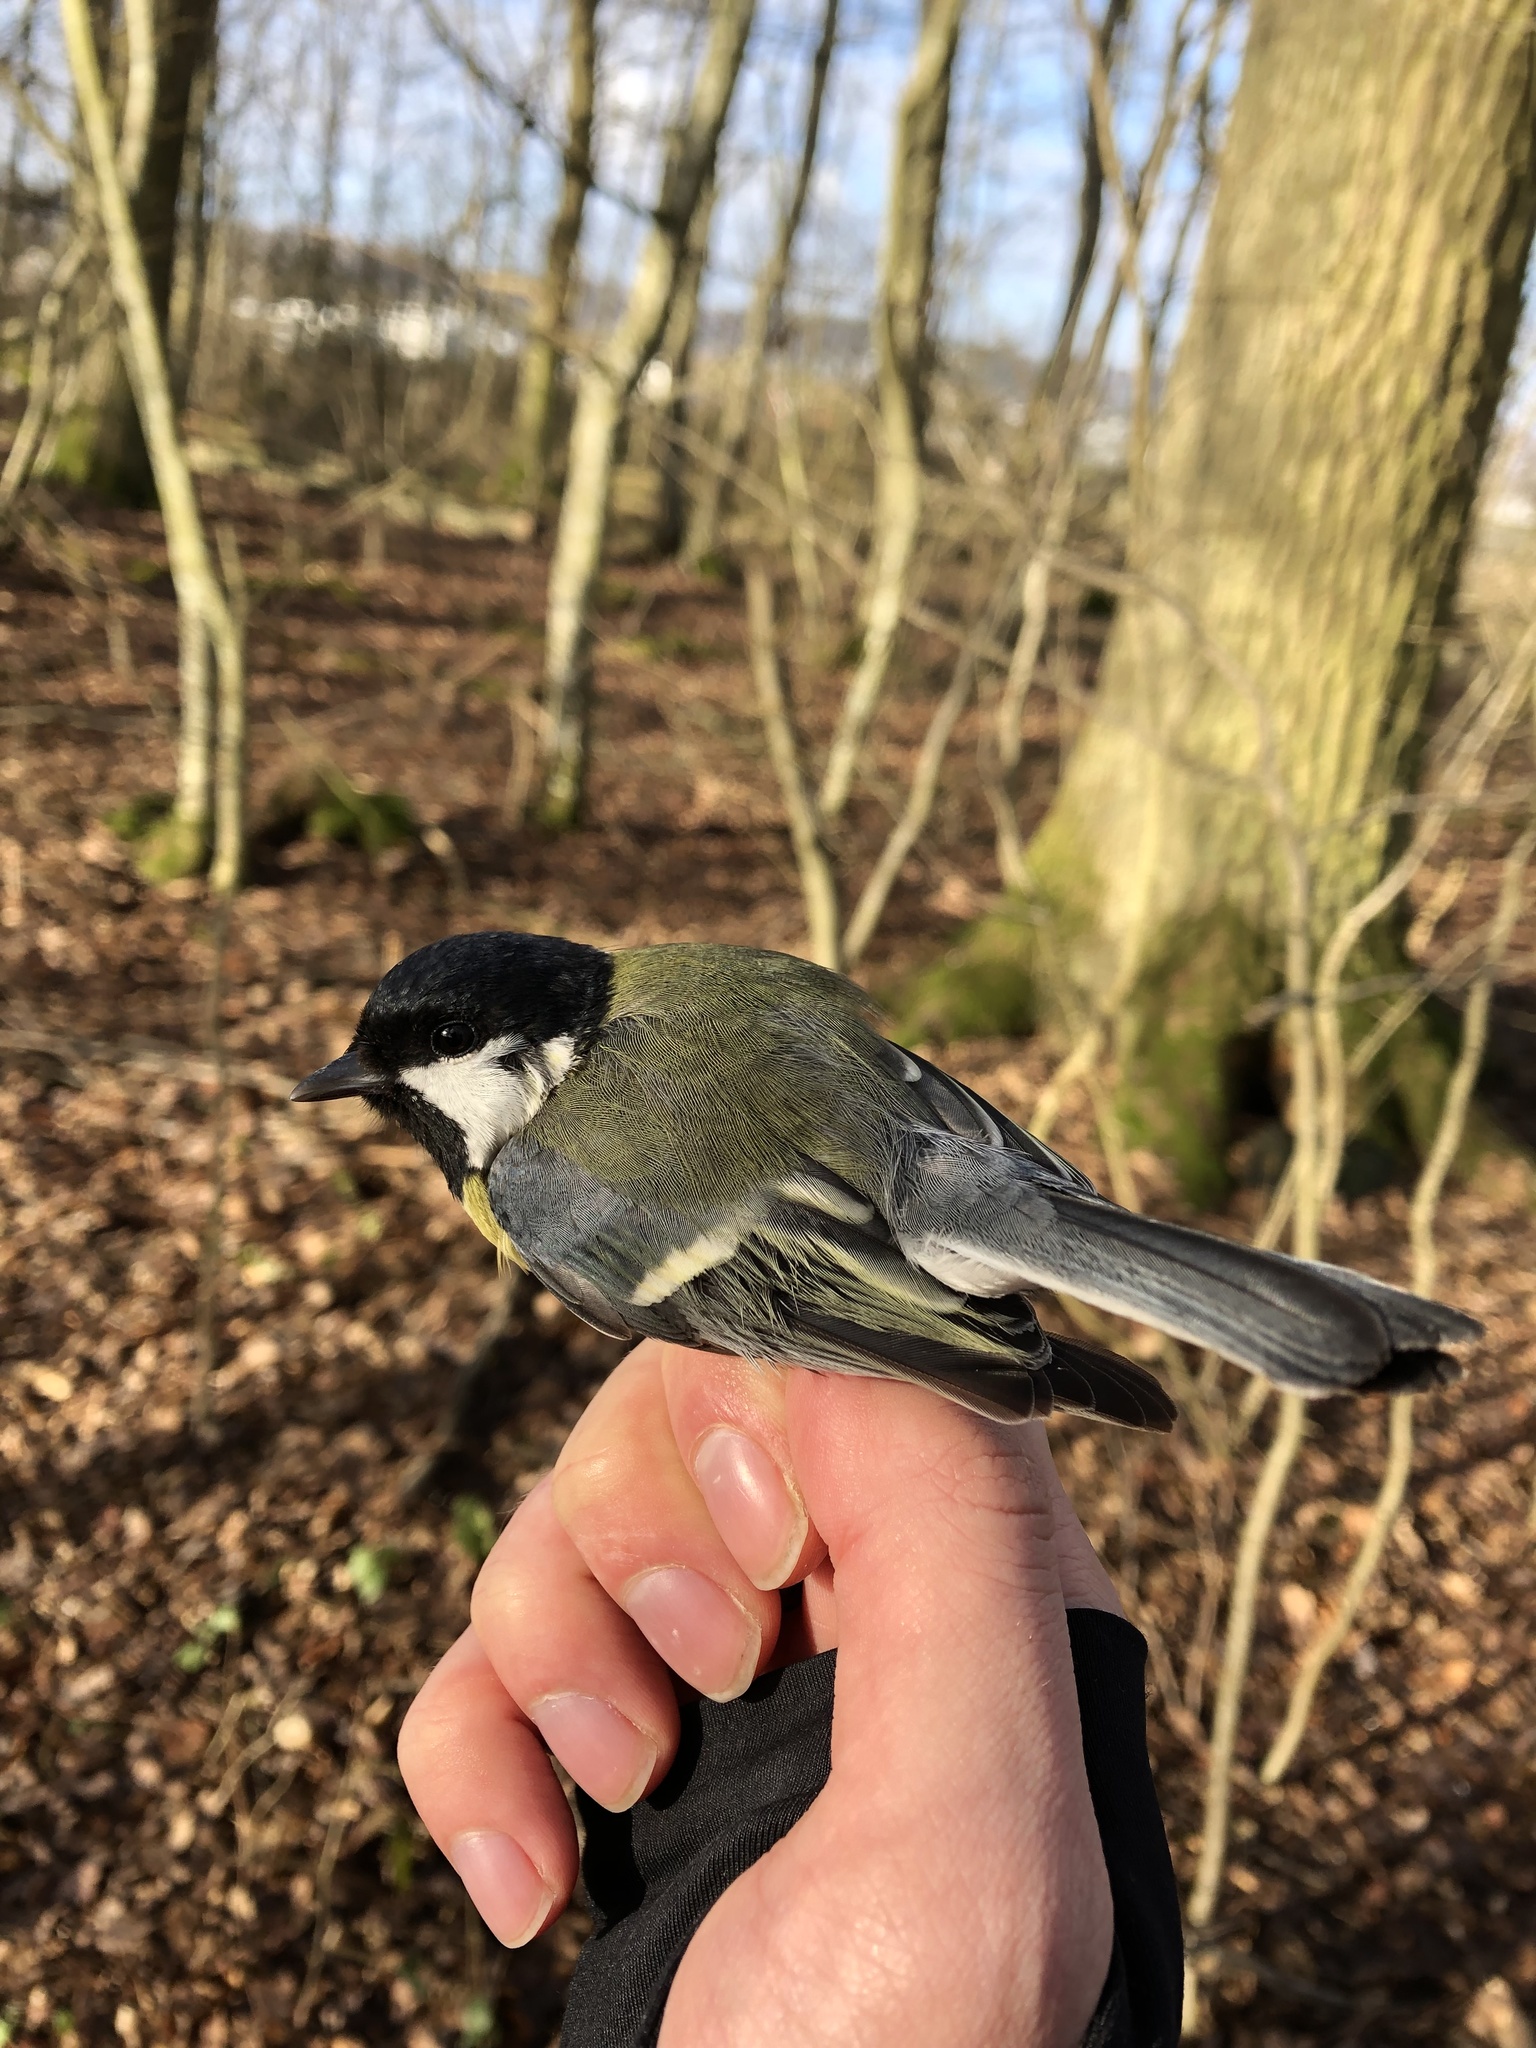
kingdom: Animalia
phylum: Chordata
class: Aves
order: Passeriformes
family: Paridae
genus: Parus
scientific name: Parus major
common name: Great tit
